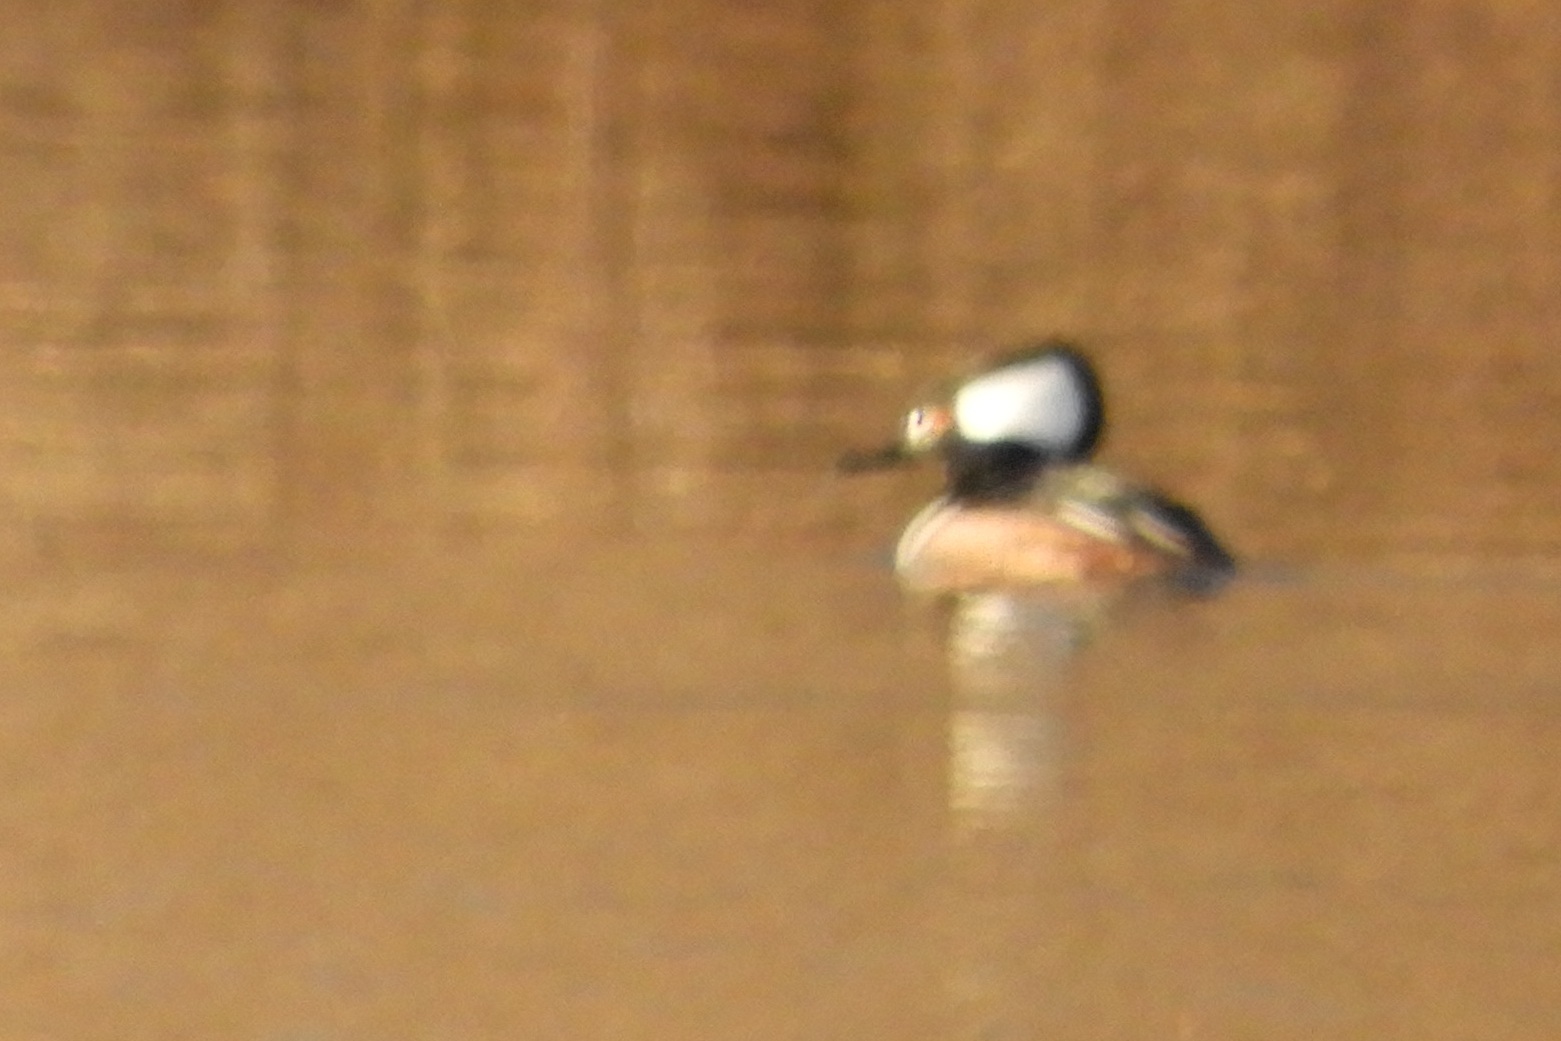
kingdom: Animalia
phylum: Chordata
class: Aves
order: Anseriformes
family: Anatidae
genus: Lophodytes
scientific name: Lophodytes cucullatus
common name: Hooded merganser
